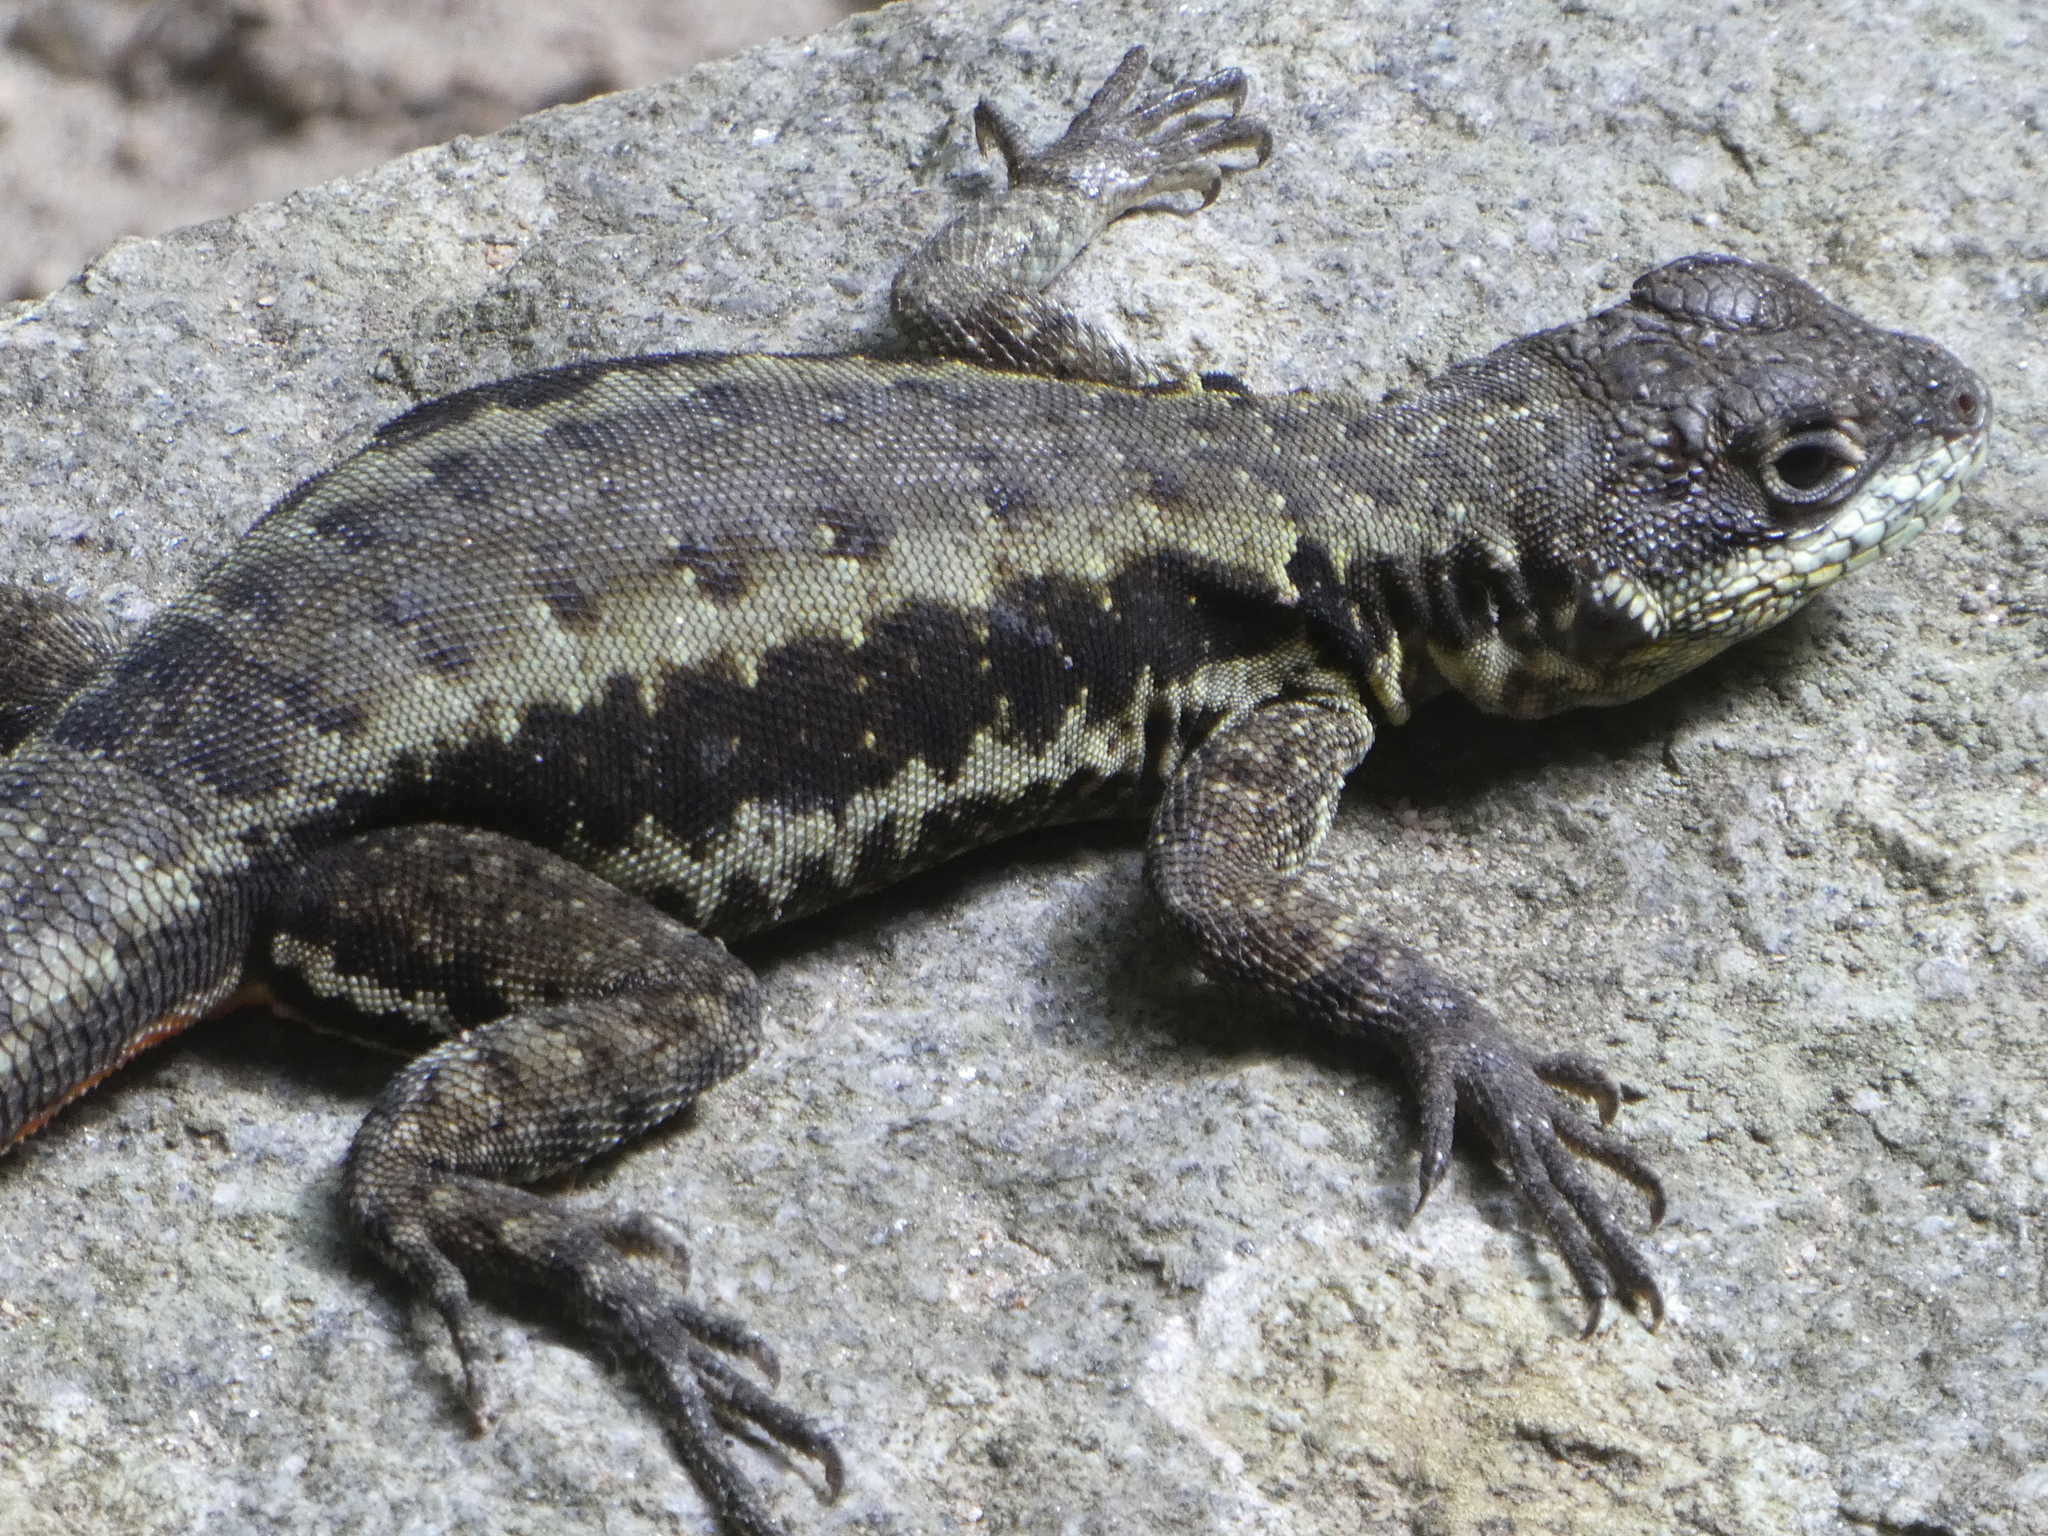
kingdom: Animalia
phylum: Chordata
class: Squamata
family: Tropiduridae
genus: Tropidurus
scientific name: Tropidurus torquatus
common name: Amazon lava lizard
